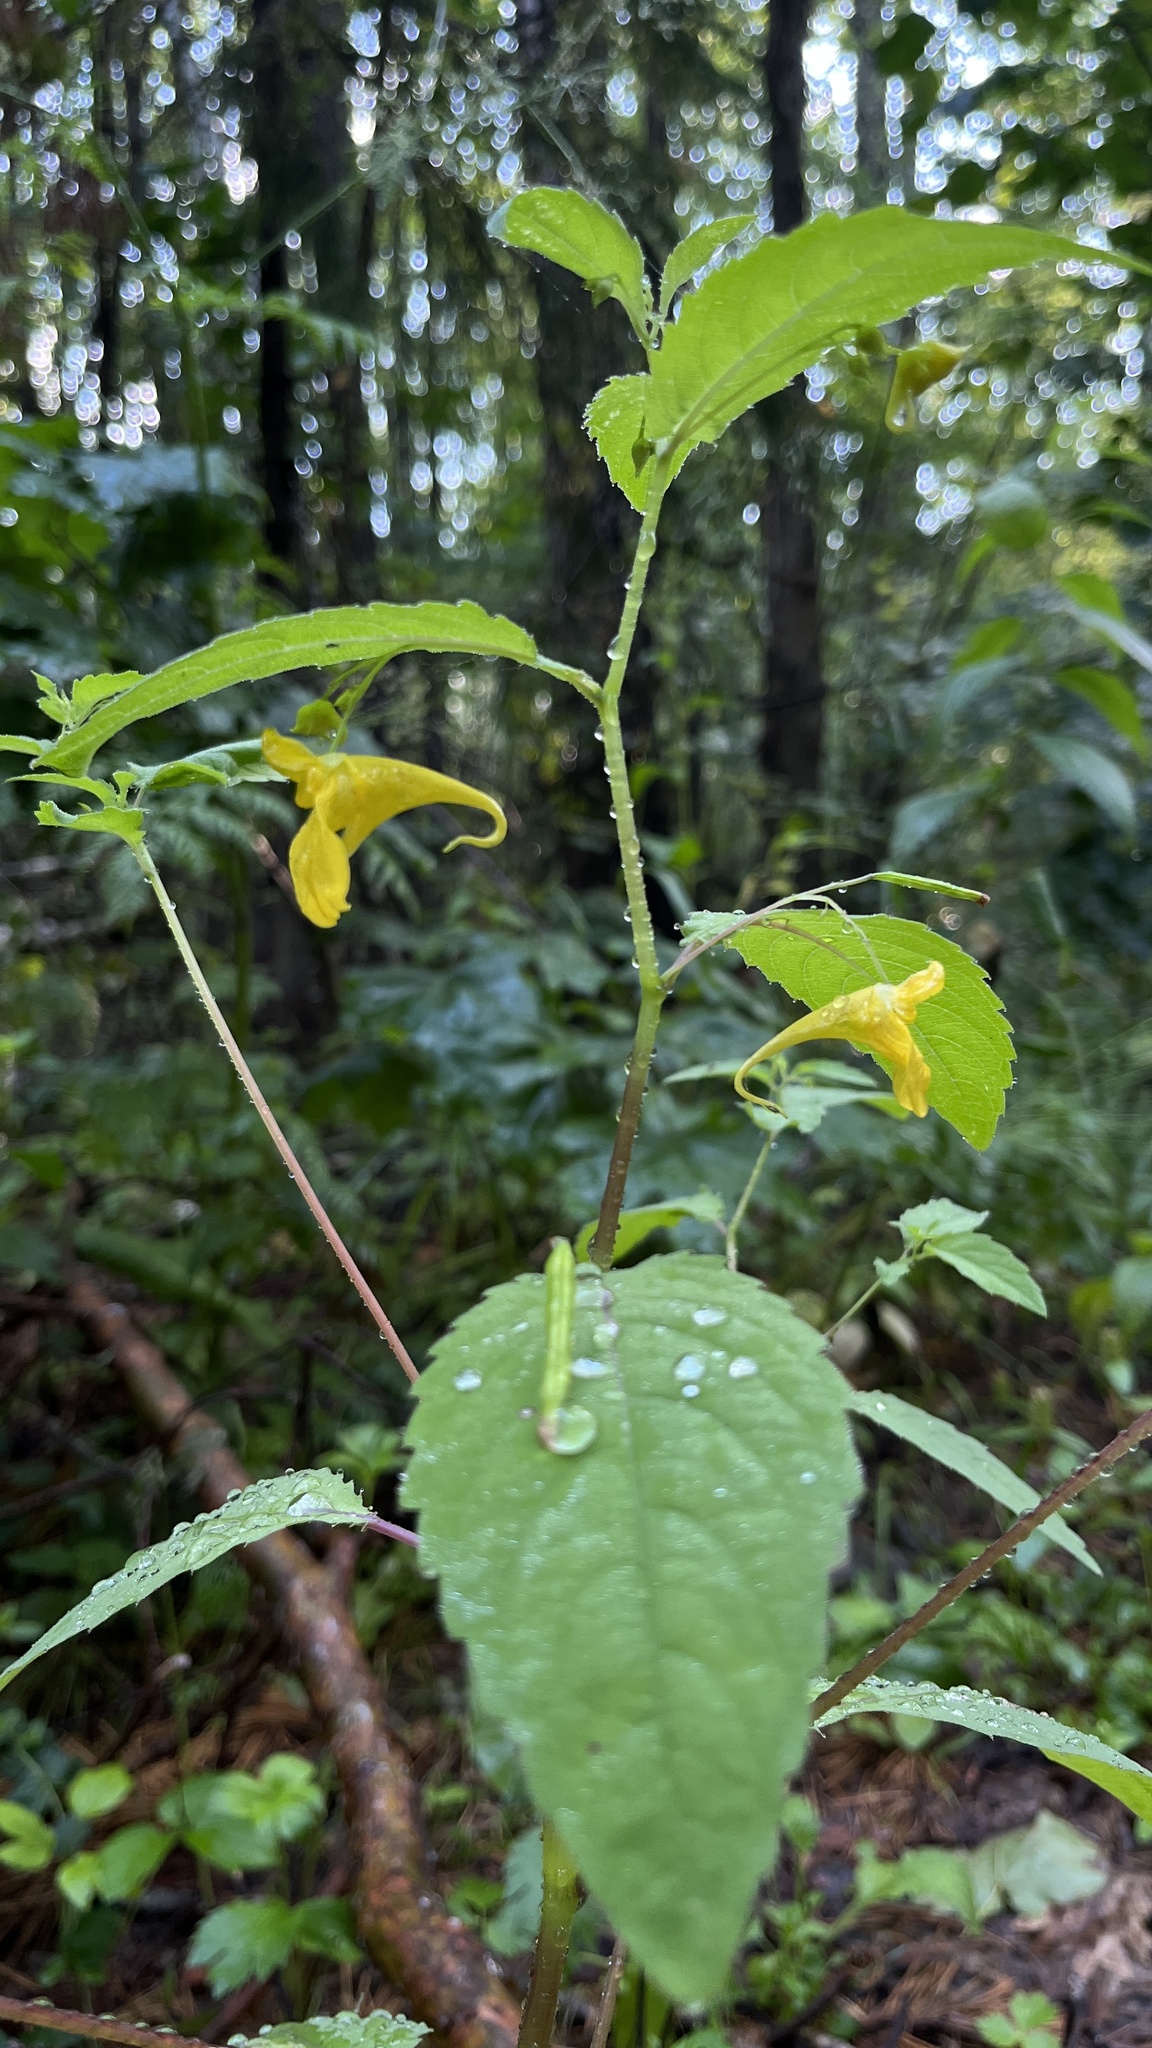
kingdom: Plantae
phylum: Tracheophyta
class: Magnoliopsida
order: Ericales
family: Balsaminaceae
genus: Impatiens
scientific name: Impatiens noli-tangere
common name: Touch-me-not balsam
